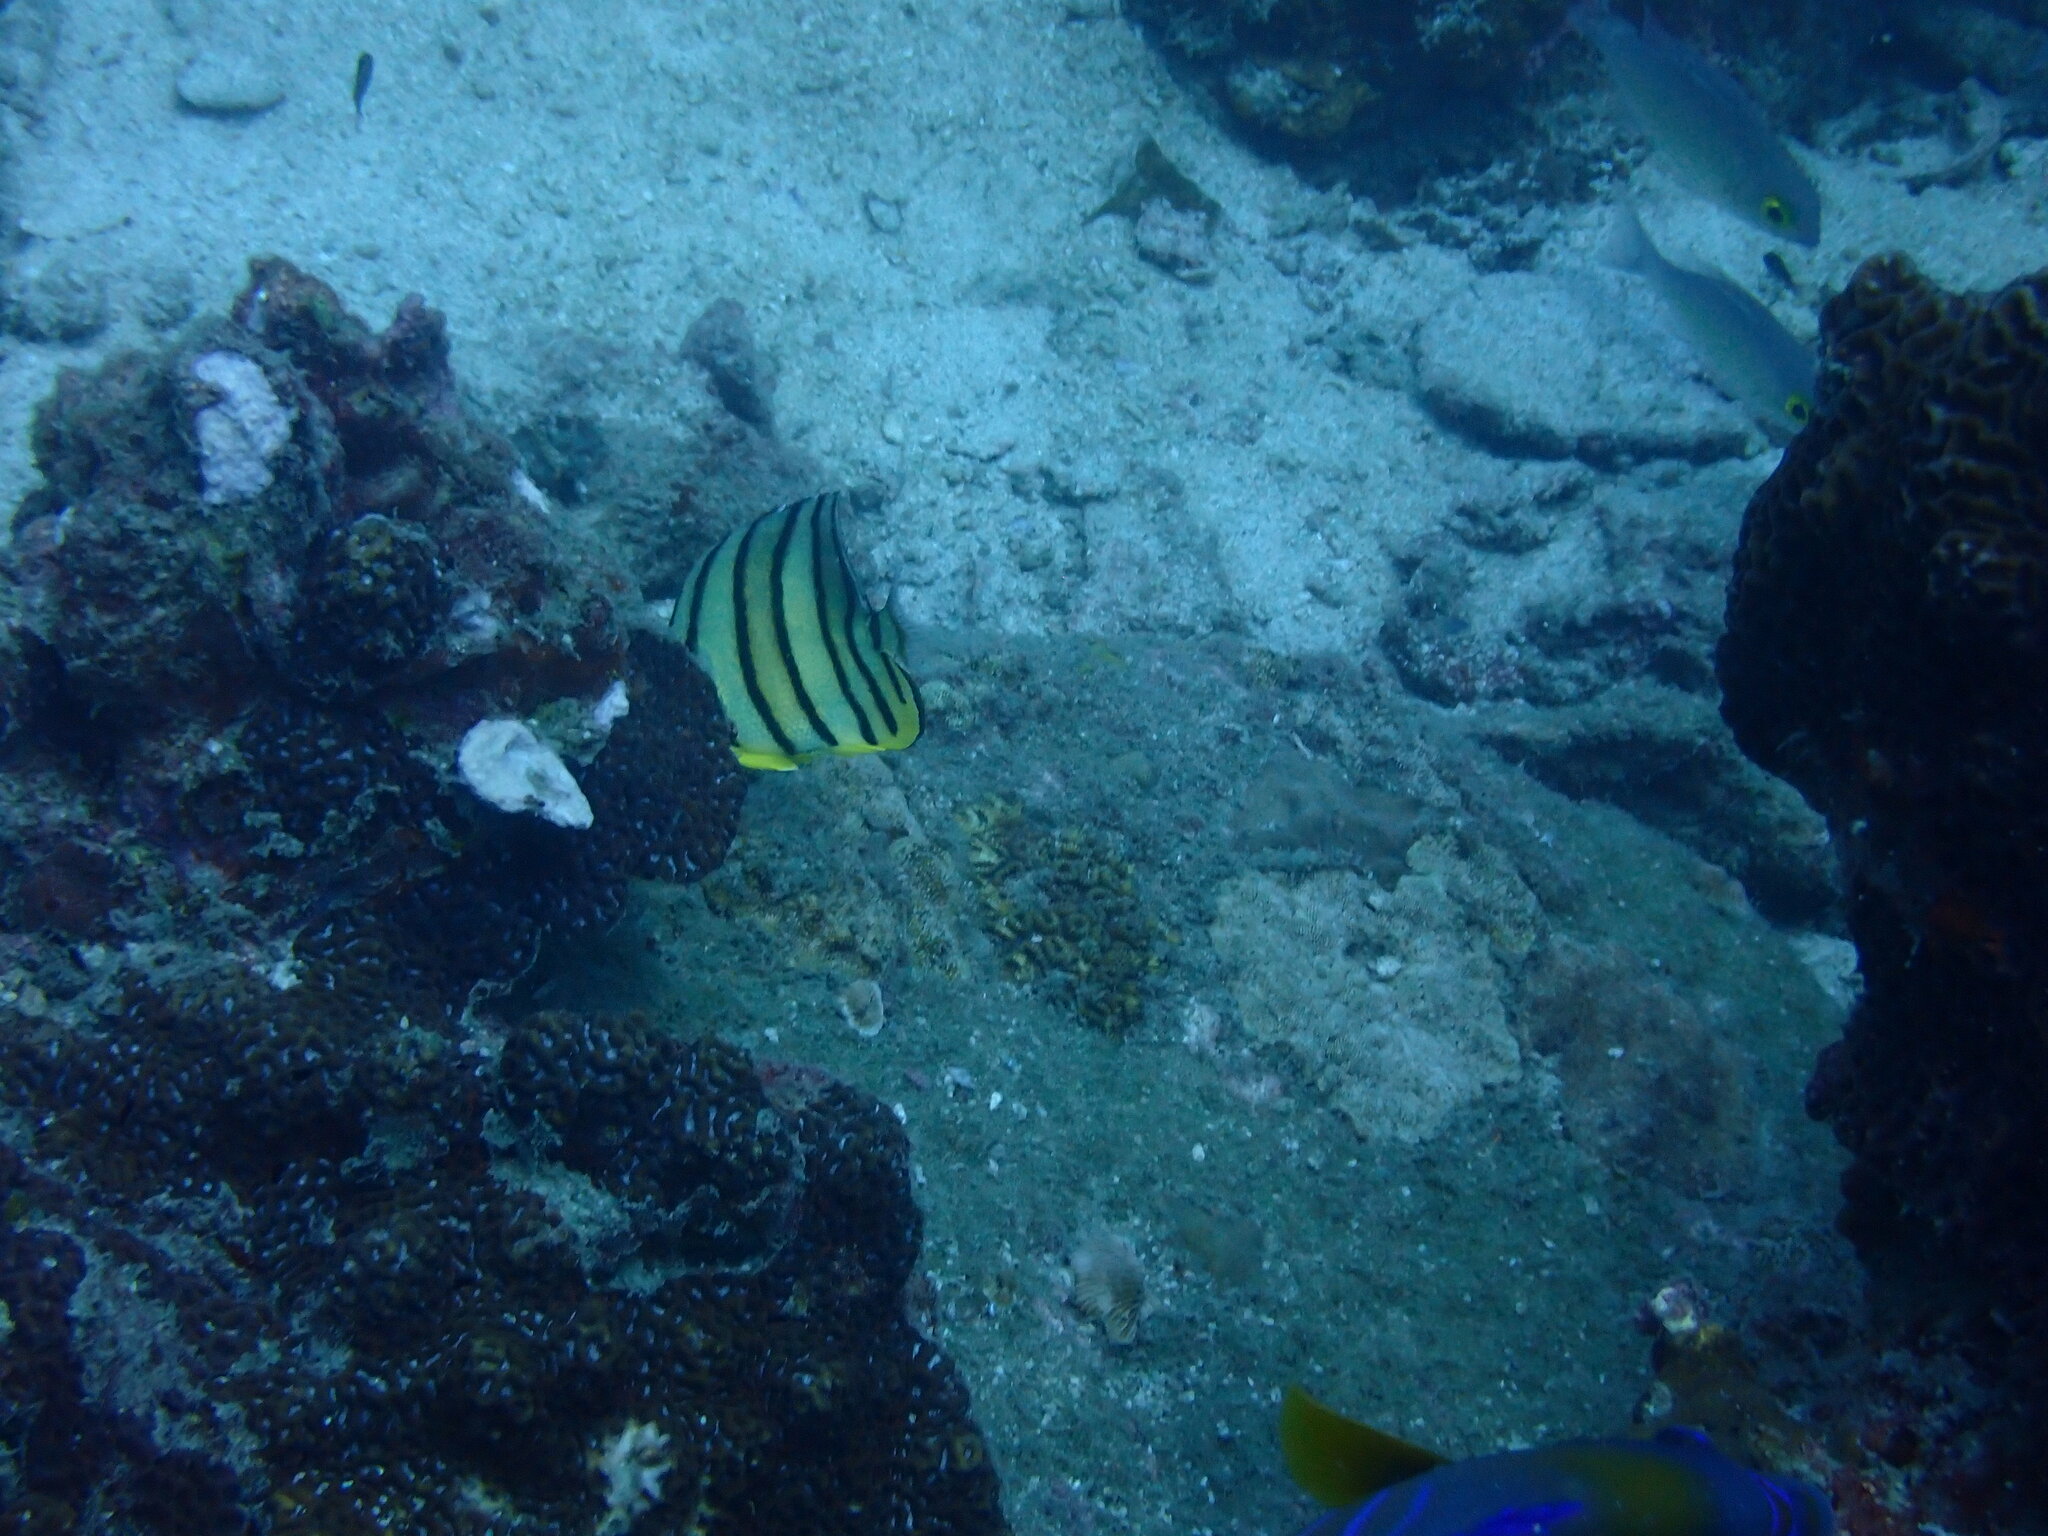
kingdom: Animalia
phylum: Chordata
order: Perciformes
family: Chaetodontidae
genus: Chaetodon
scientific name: Chaetodon octofasciatus
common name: Eightband butterflyfish
